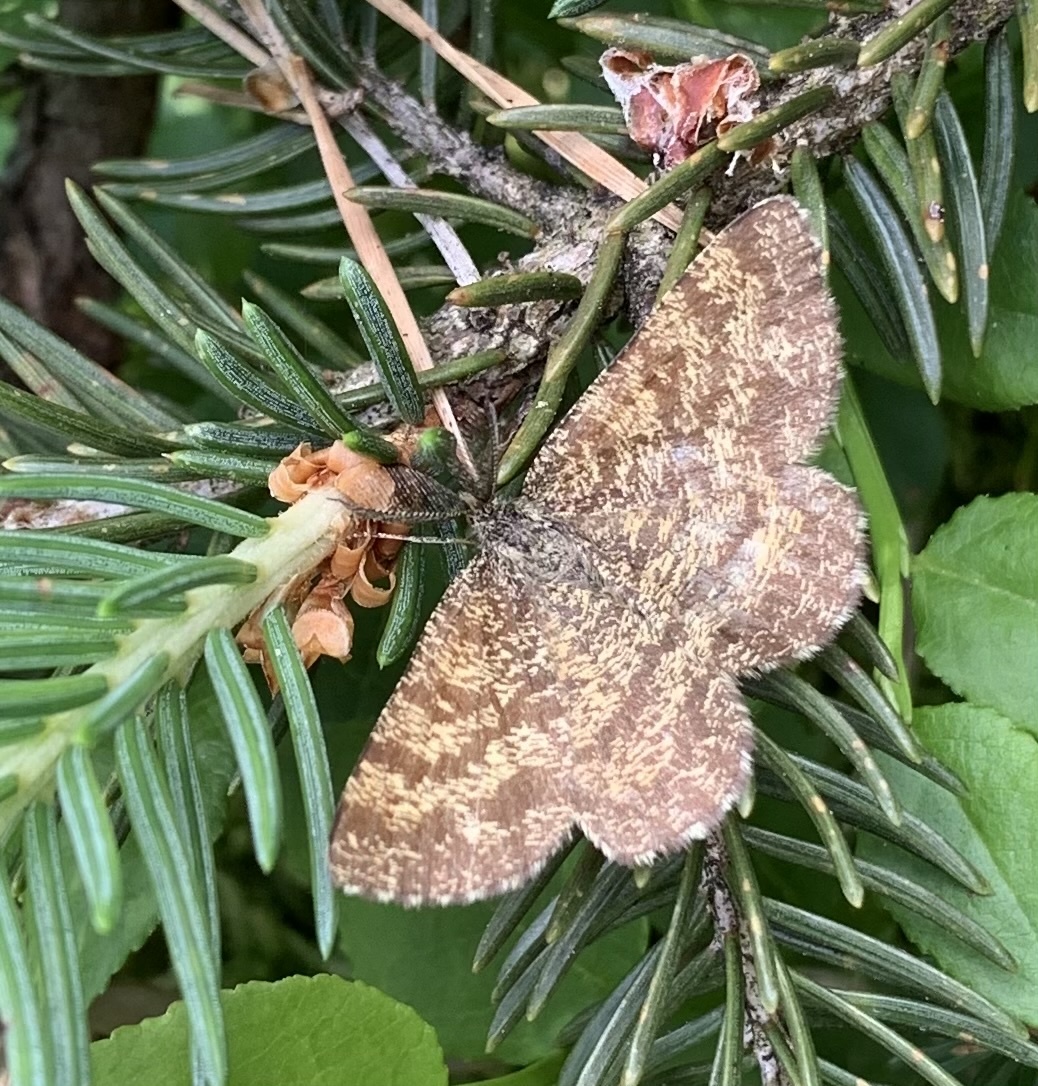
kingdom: Animalia
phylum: Arthropoda
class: Insecta
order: Lepidoptera
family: Geometridae
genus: Ematurga
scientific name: Ematurga atomaria
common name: Common heath
